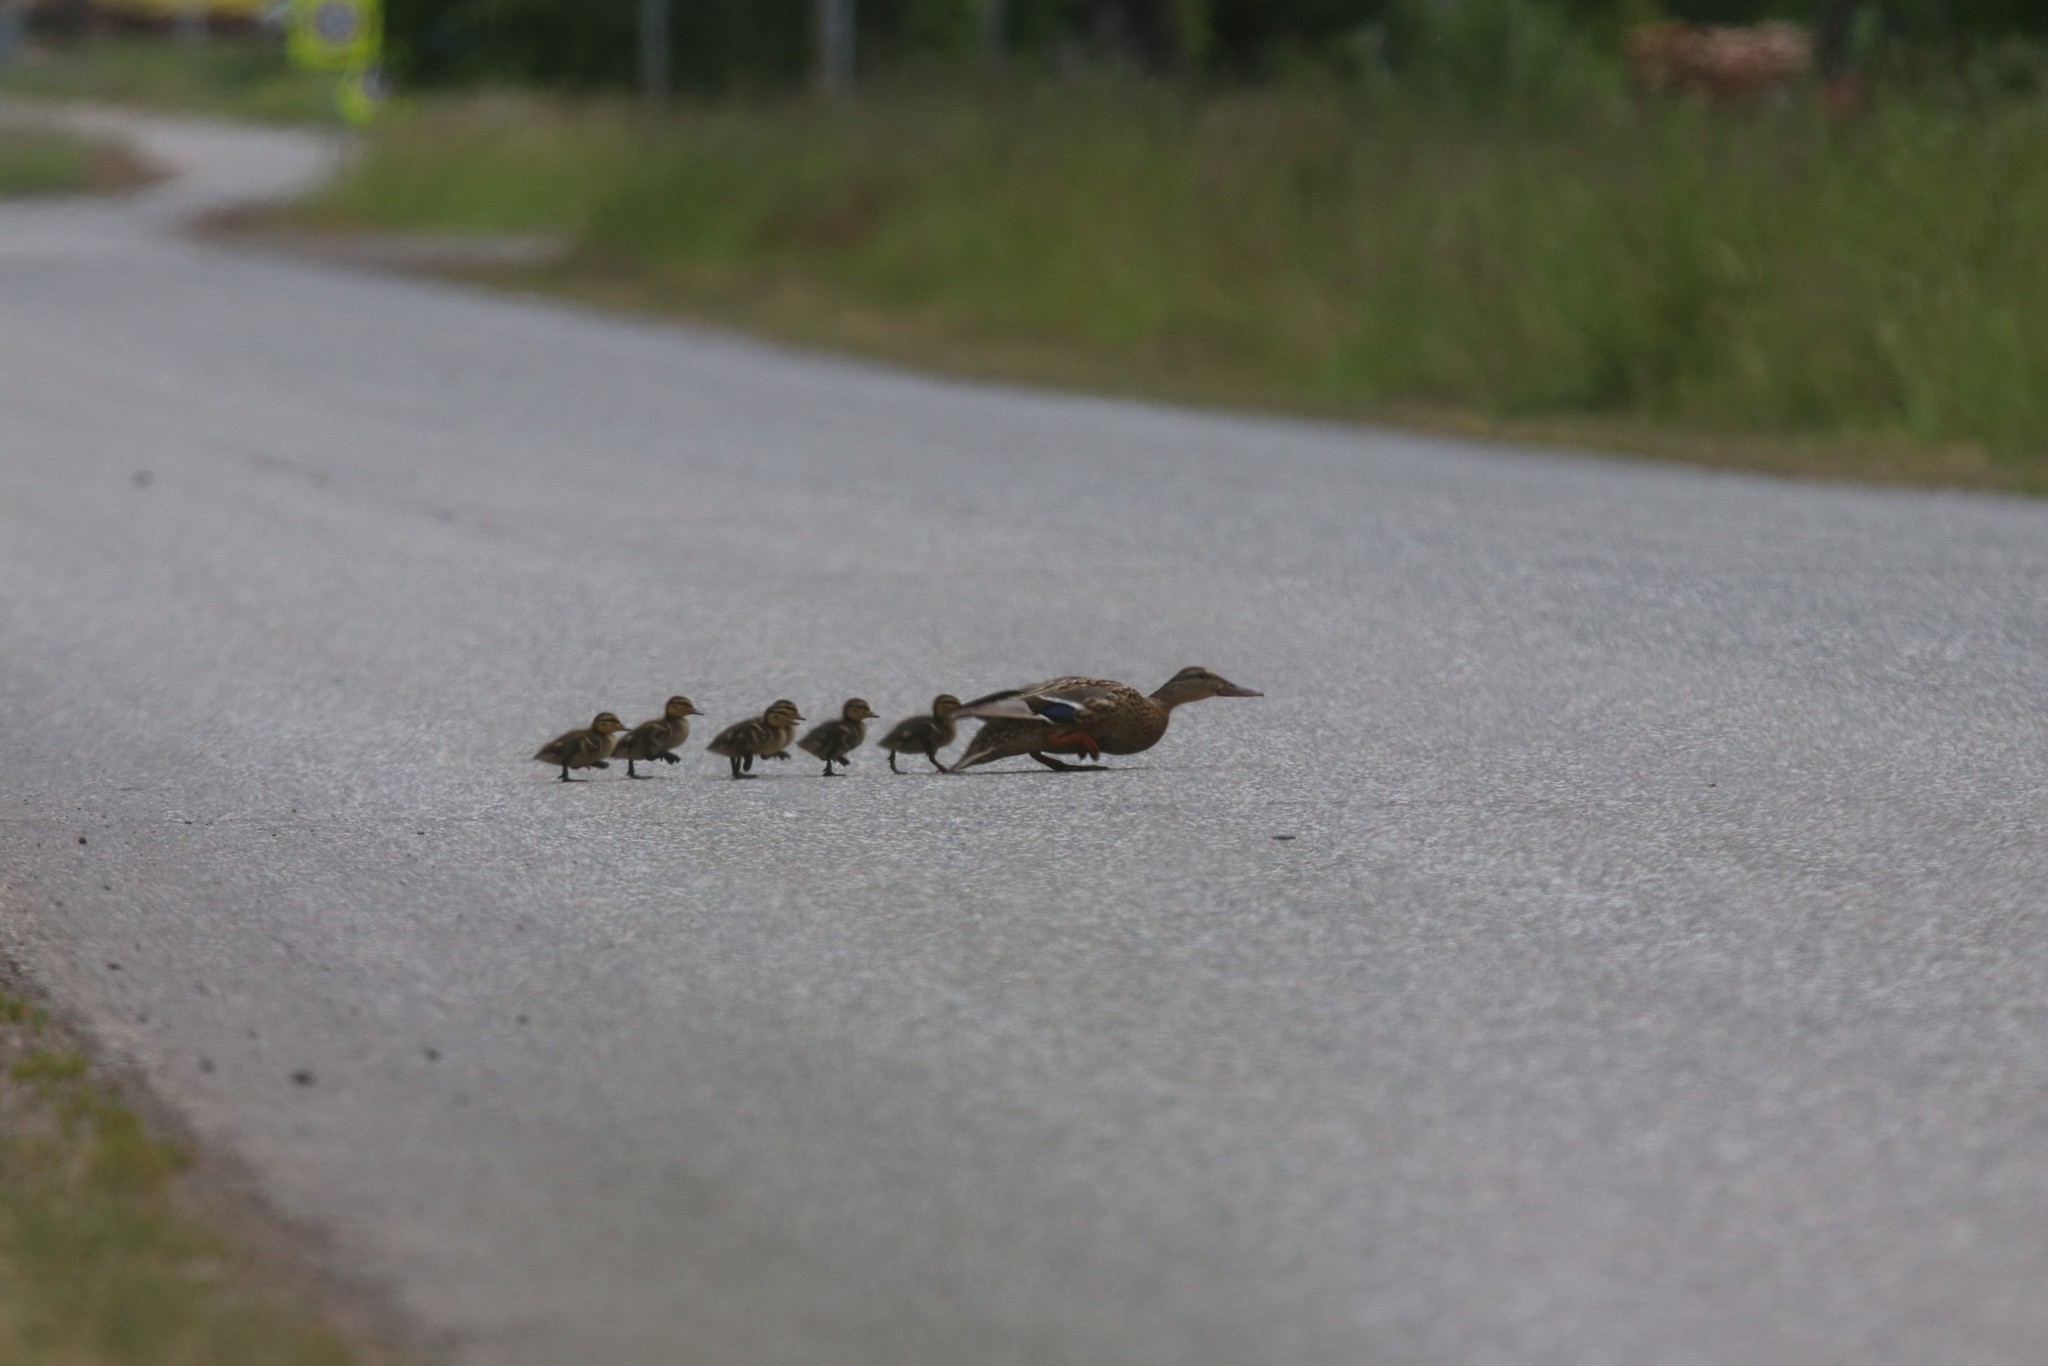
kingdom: Animalia
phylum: Chordata
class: Aves
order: Anseriformes
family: Anatidae
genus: Anas
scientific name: Anas platyrhynchos
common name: Mallard
